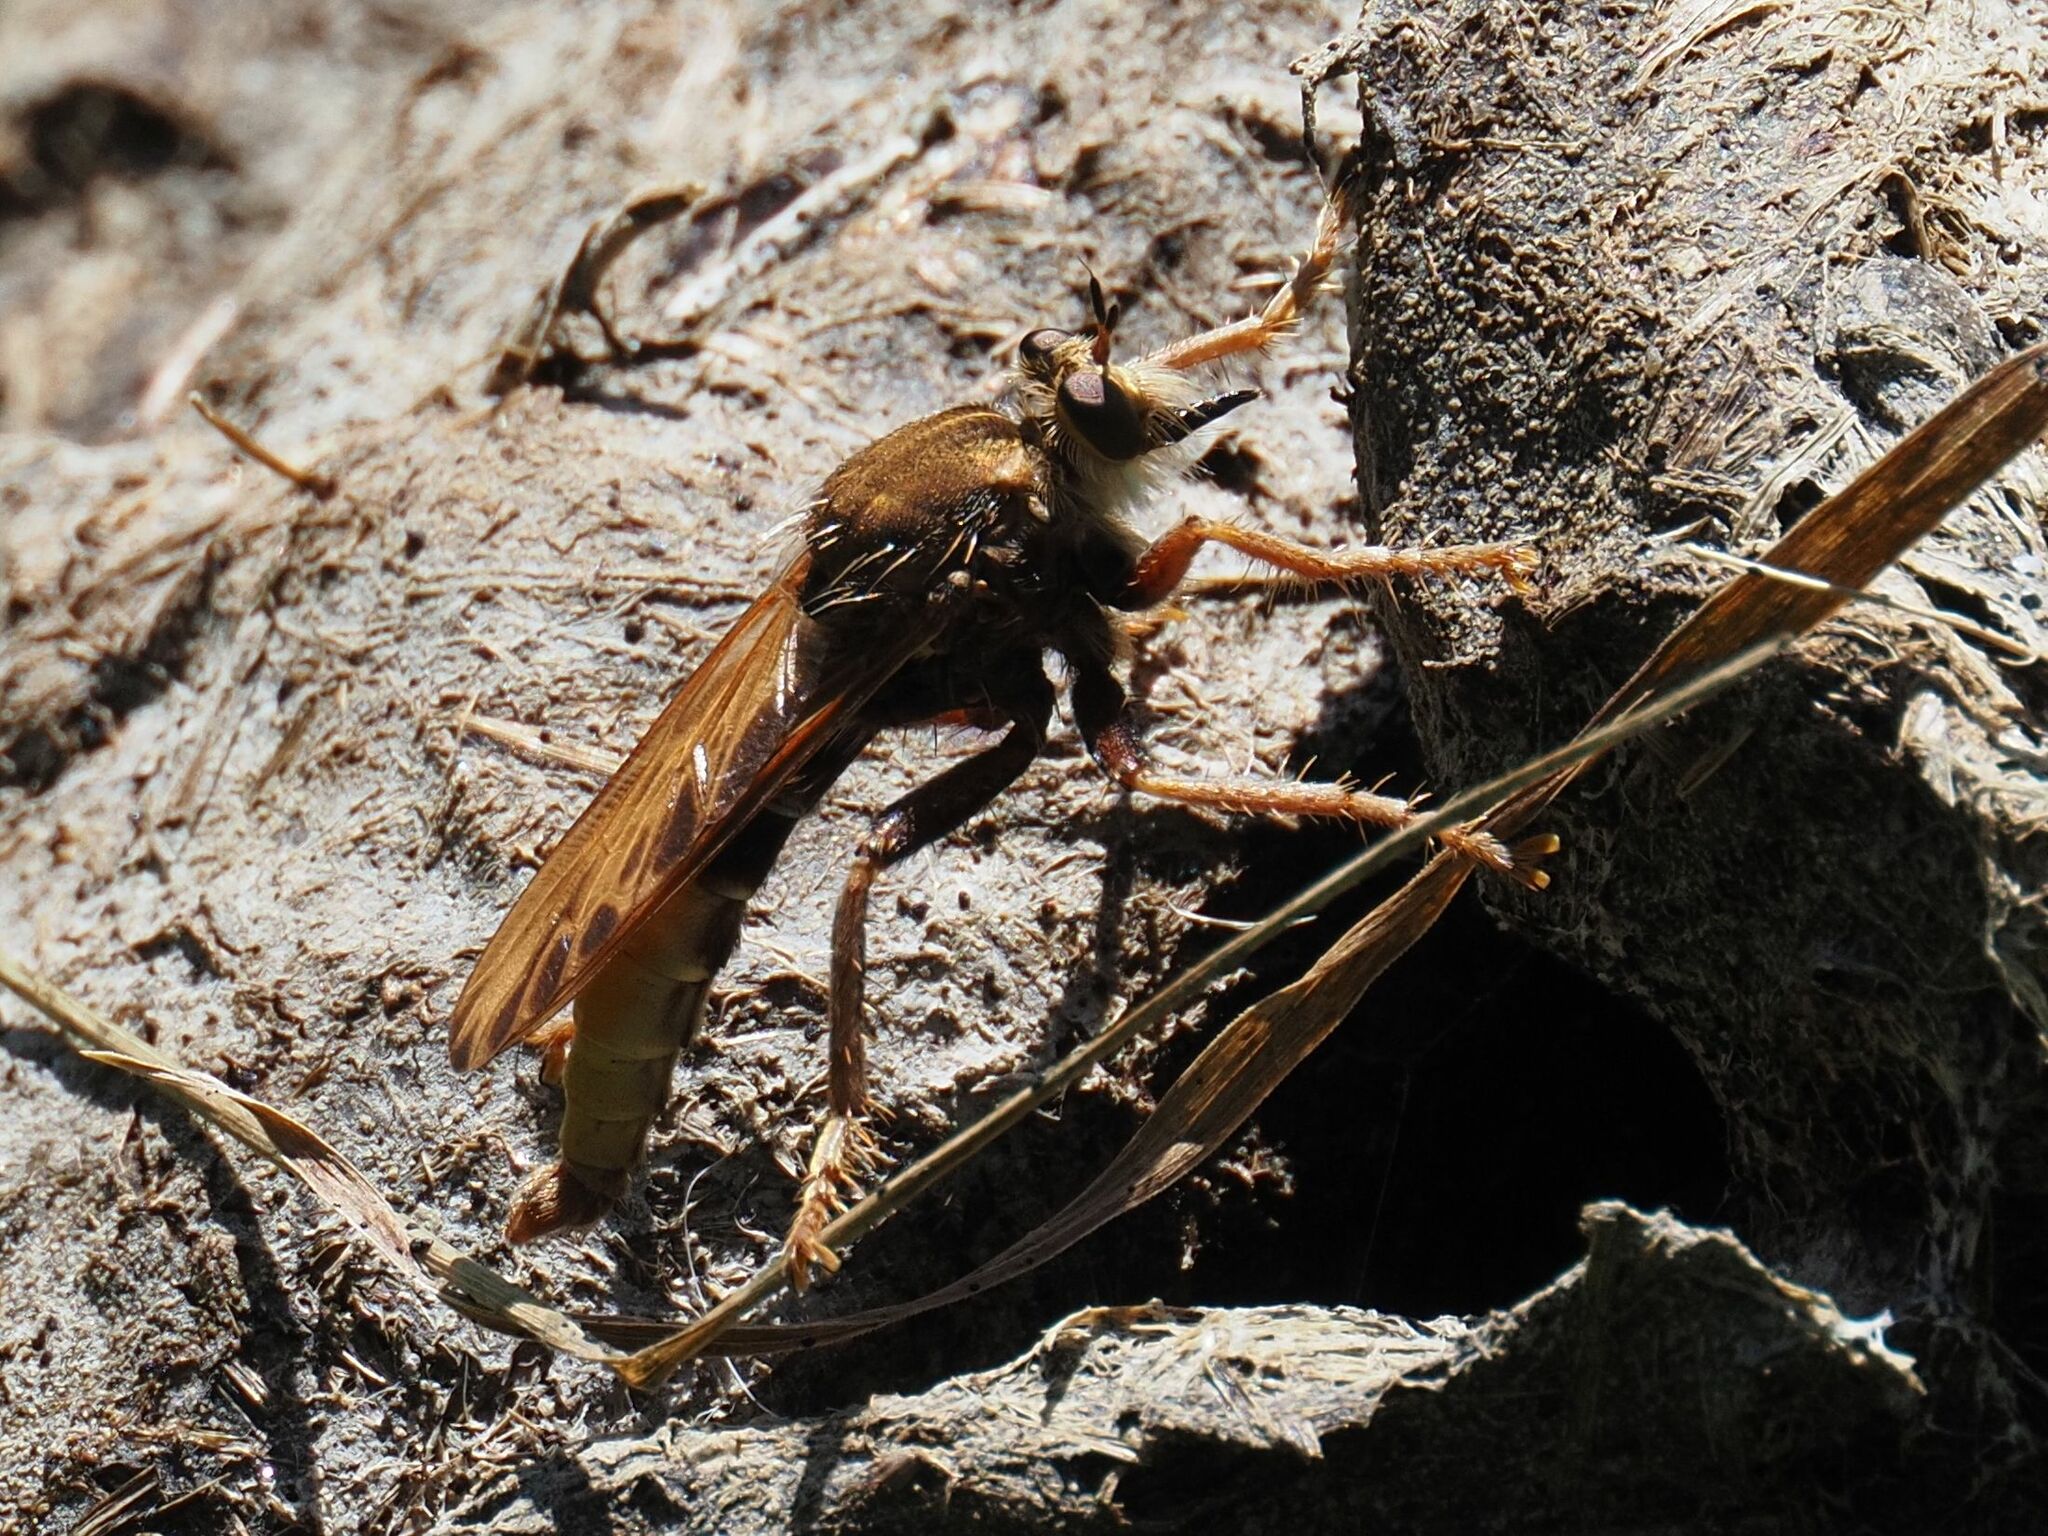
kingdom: Animalia
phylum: Arthropoda
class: Insecta
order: Diptera
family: Asilidae
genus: Asilus
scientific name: Asilus crabroniformis
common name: Hornet robberfly
